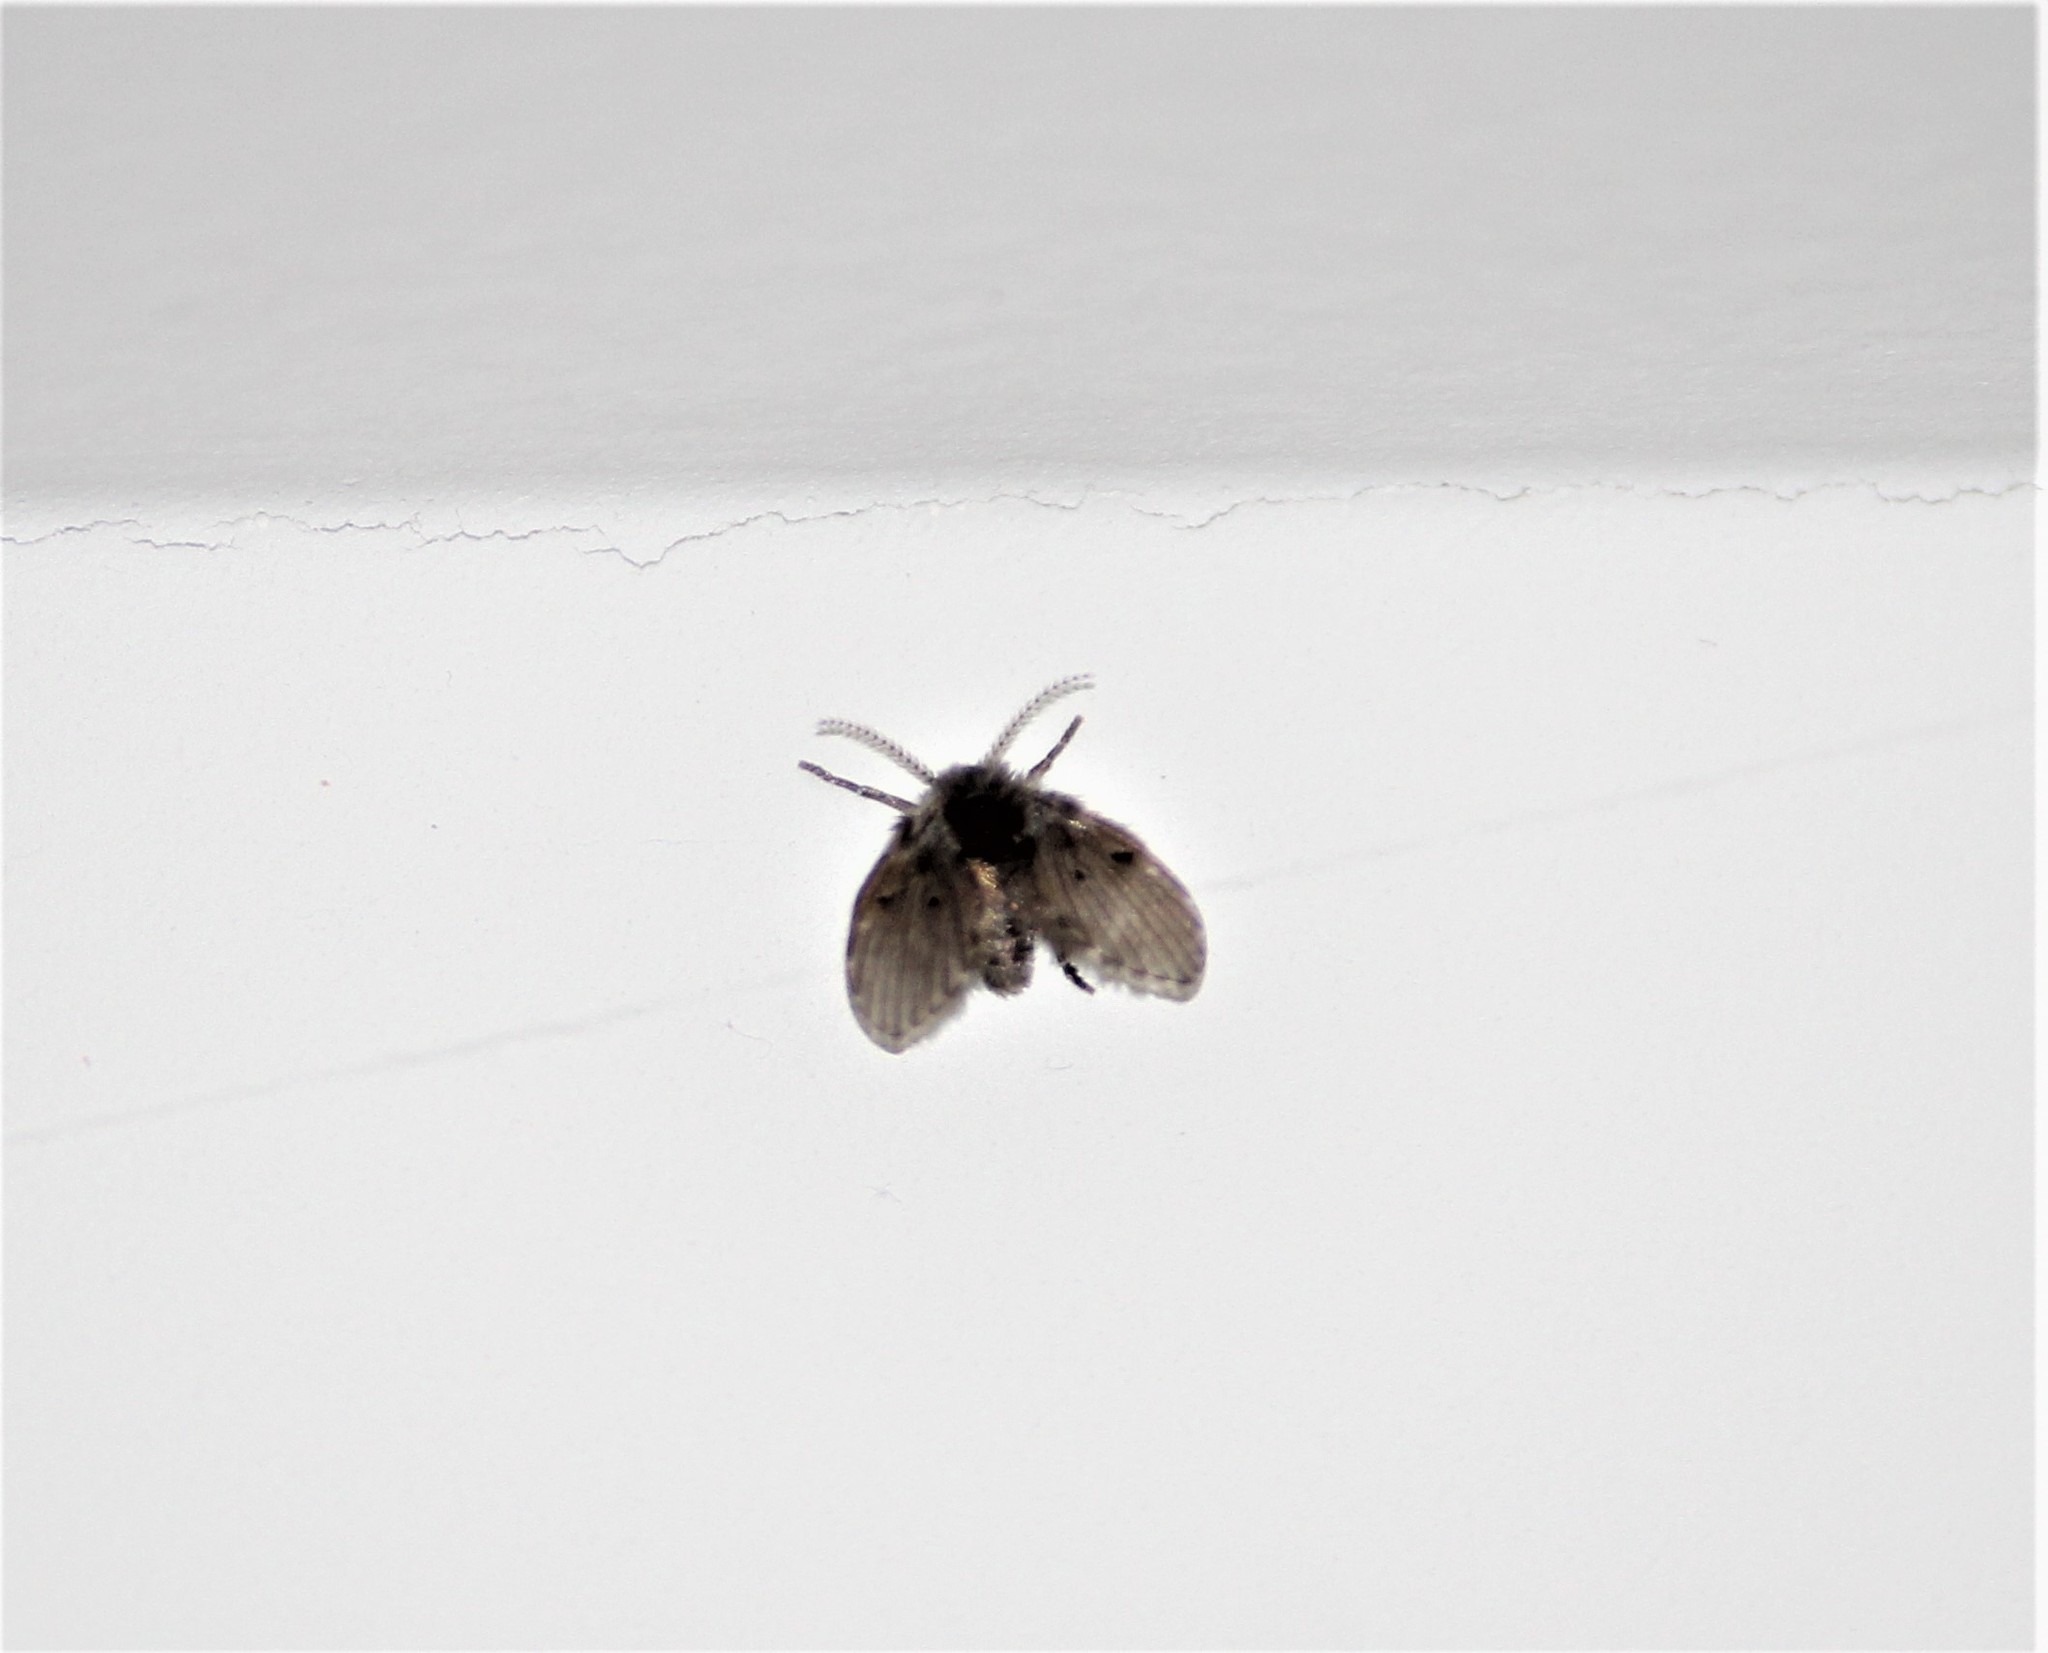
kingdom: Animalia
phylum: Arthropoda
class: Insecta
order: Diptera
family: Psychodidae
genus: Clogmia
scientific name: Clogmia albipunctatus
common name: White-spotted moth fly
